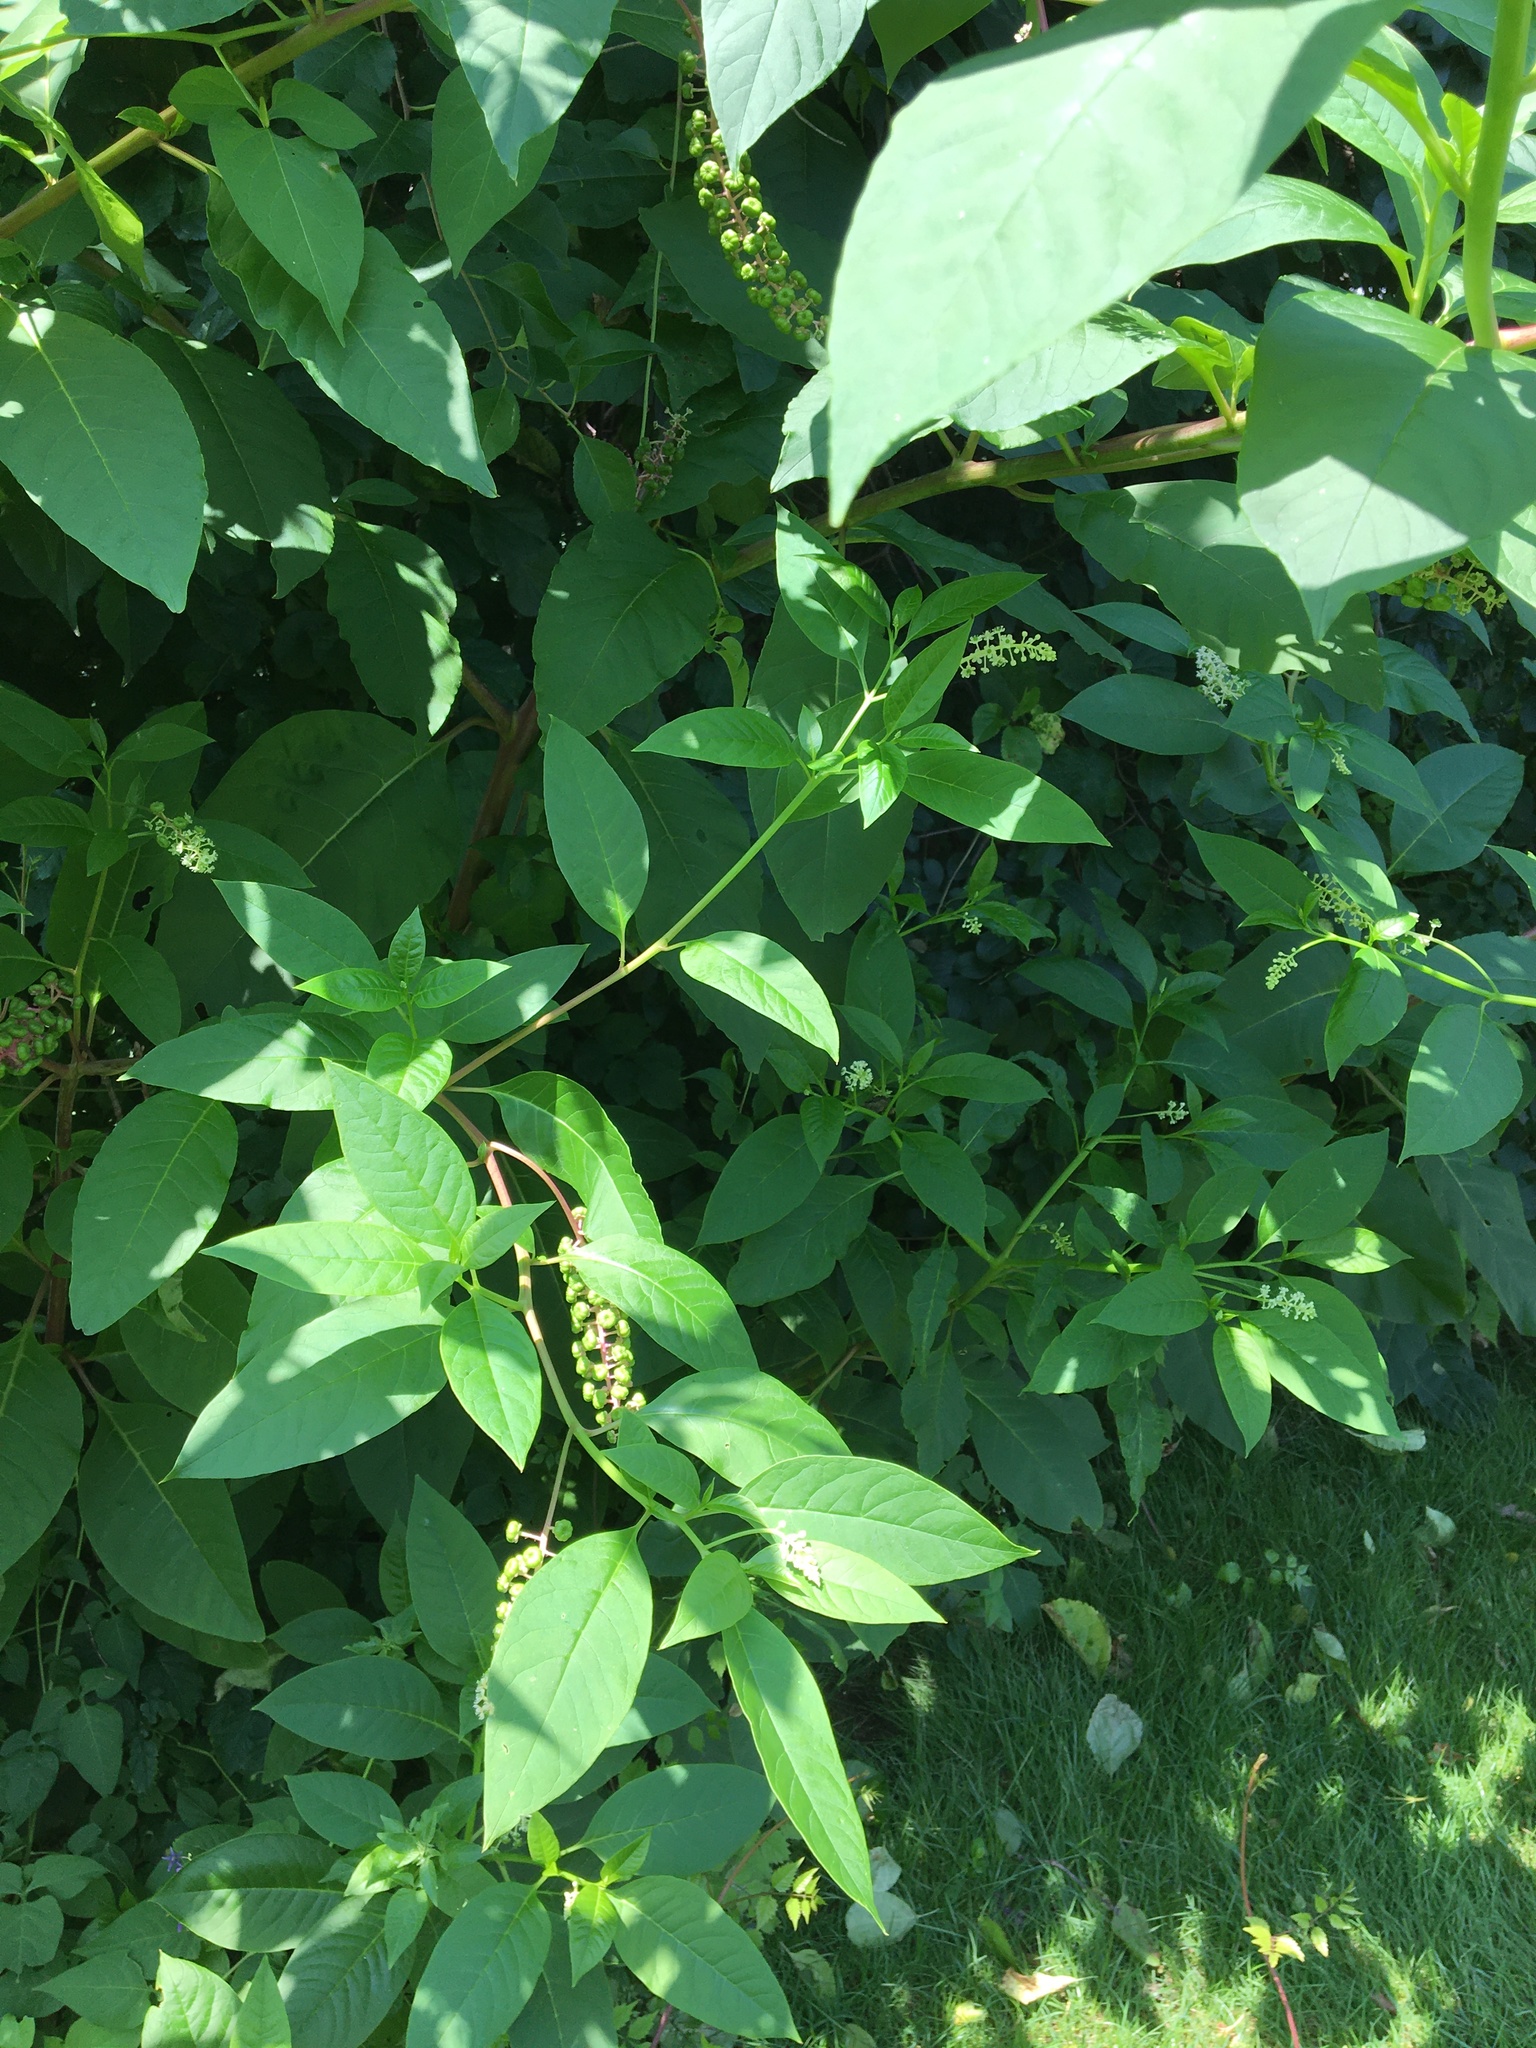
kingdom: Plantae
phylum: Tracheophyta
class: Magnoliopsida
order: Caryophyllales
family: Phytolaccaceae
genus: Phytolacca
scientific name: Phytolacca americana
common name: American pokeweed
